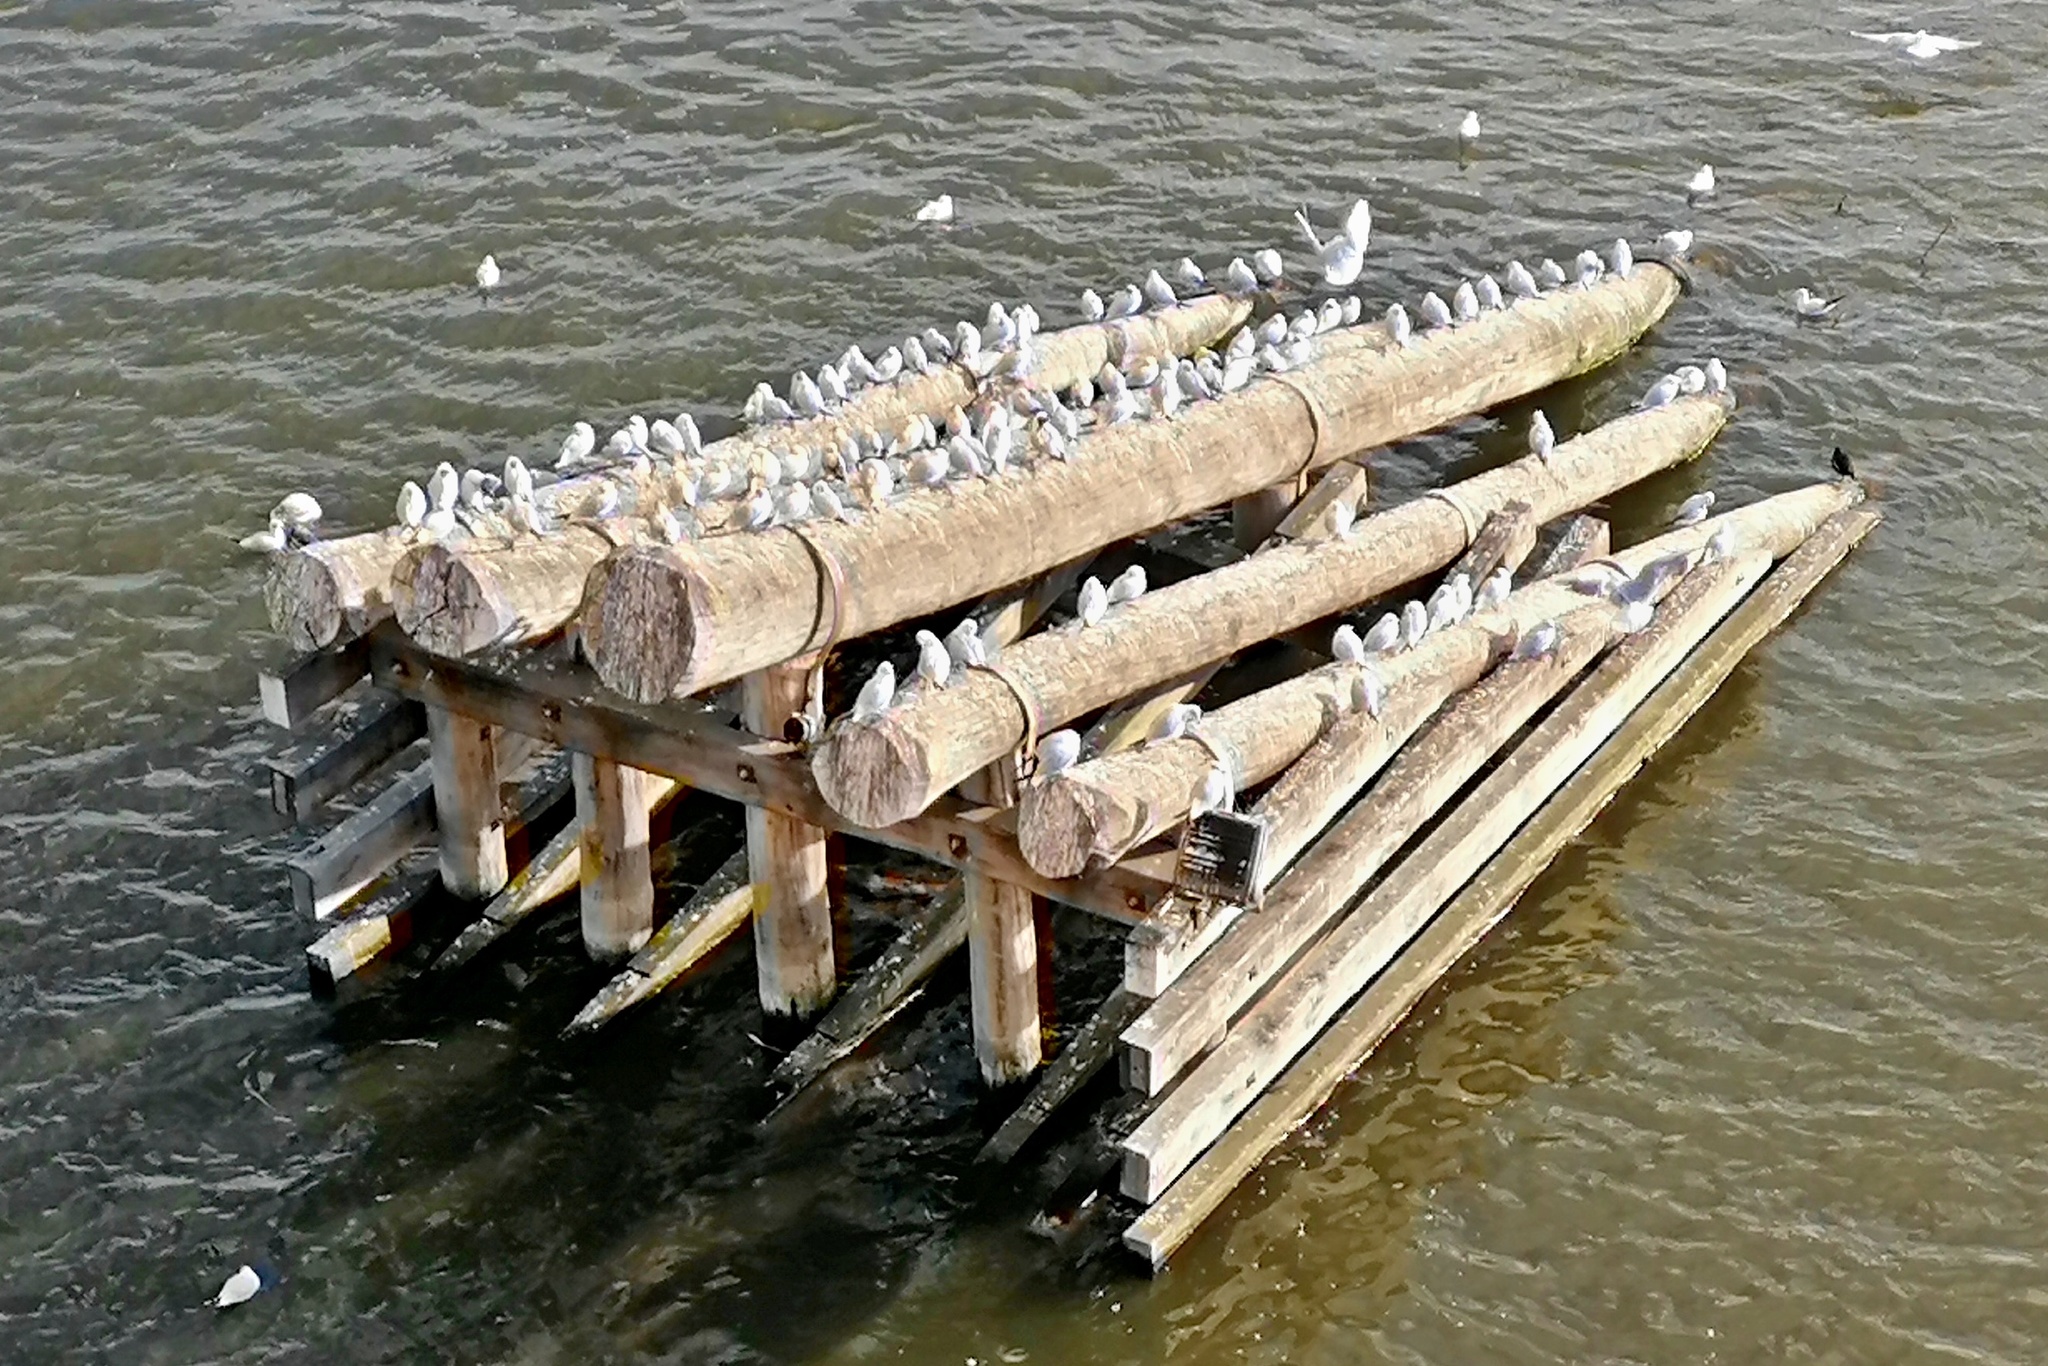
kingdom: Animalia
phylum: Chordata
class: Aves
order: Charadriiformes
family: Laridae
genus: Chroicocephalus
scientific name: Chroicocephalus ridibundus
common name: Black-headed gull
